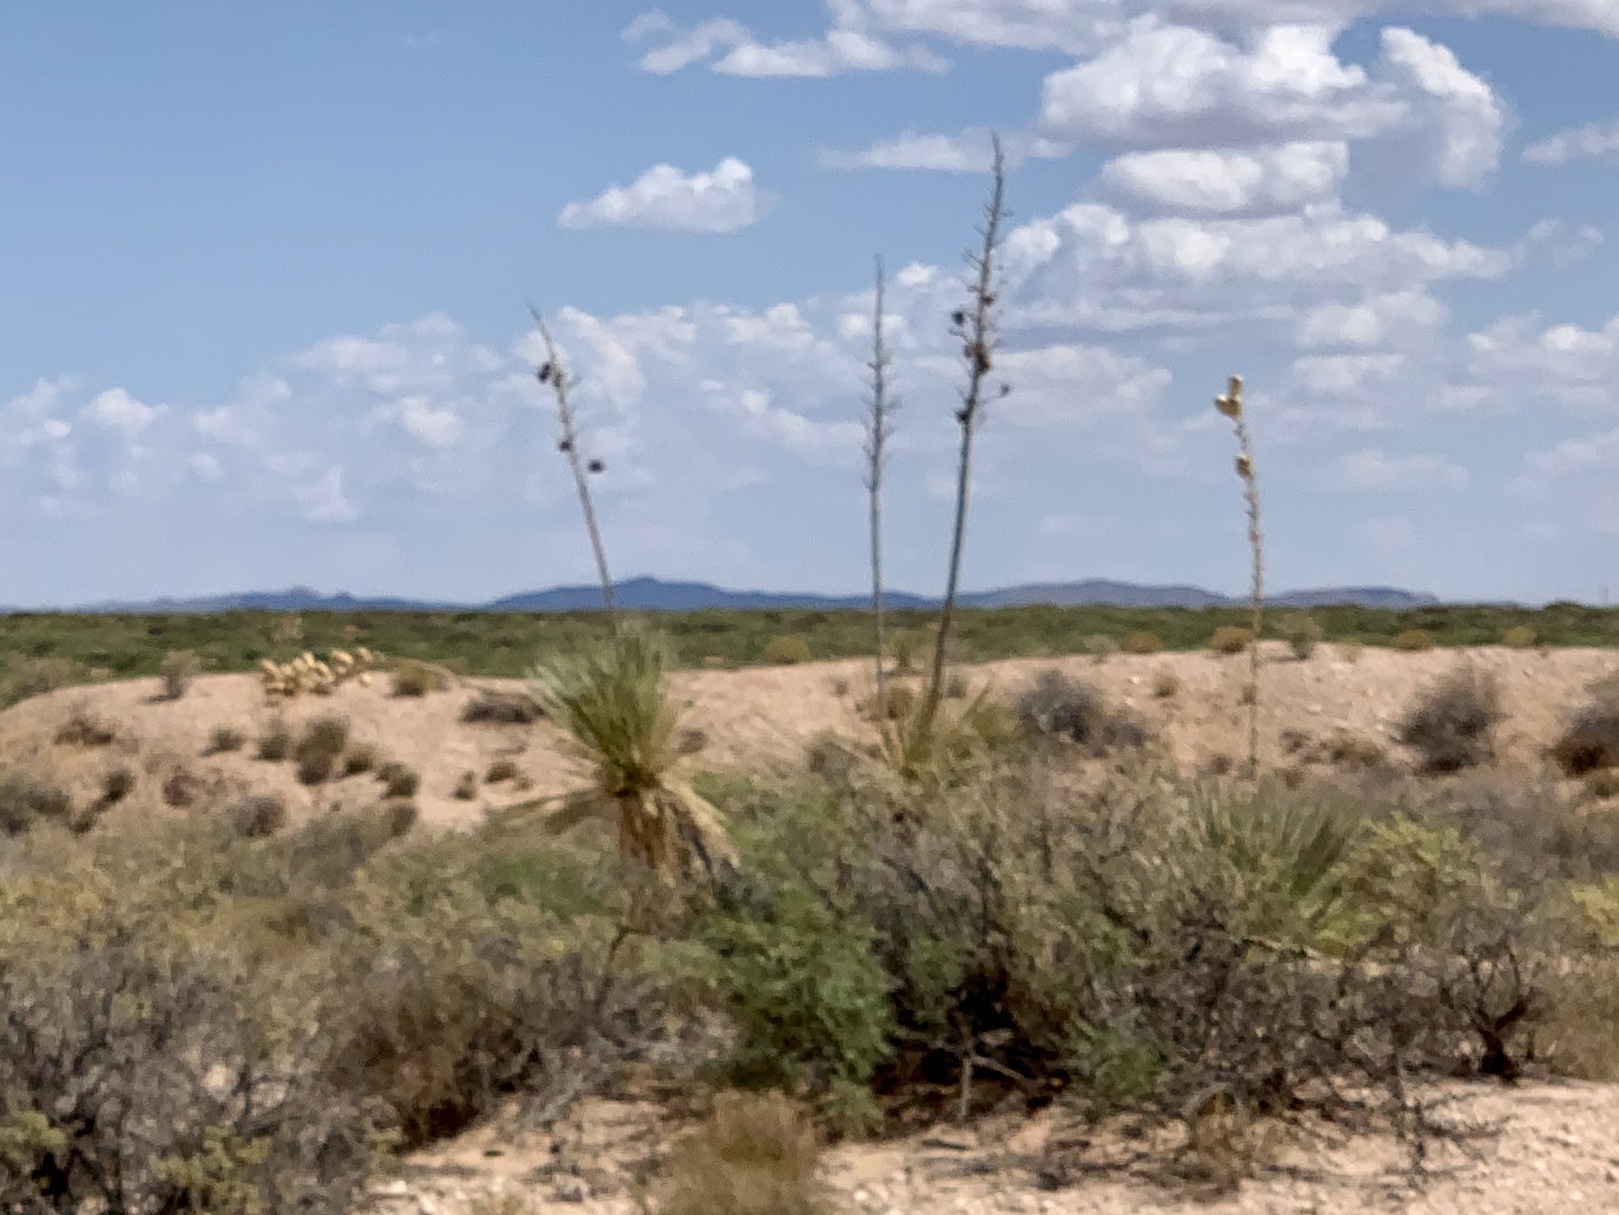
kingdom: Plantae
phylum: Tracheophyta
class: Liliopsida
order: Asparagales
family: Asparagaceae
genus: Yucca
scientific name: Yucca elata
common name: Palmella
